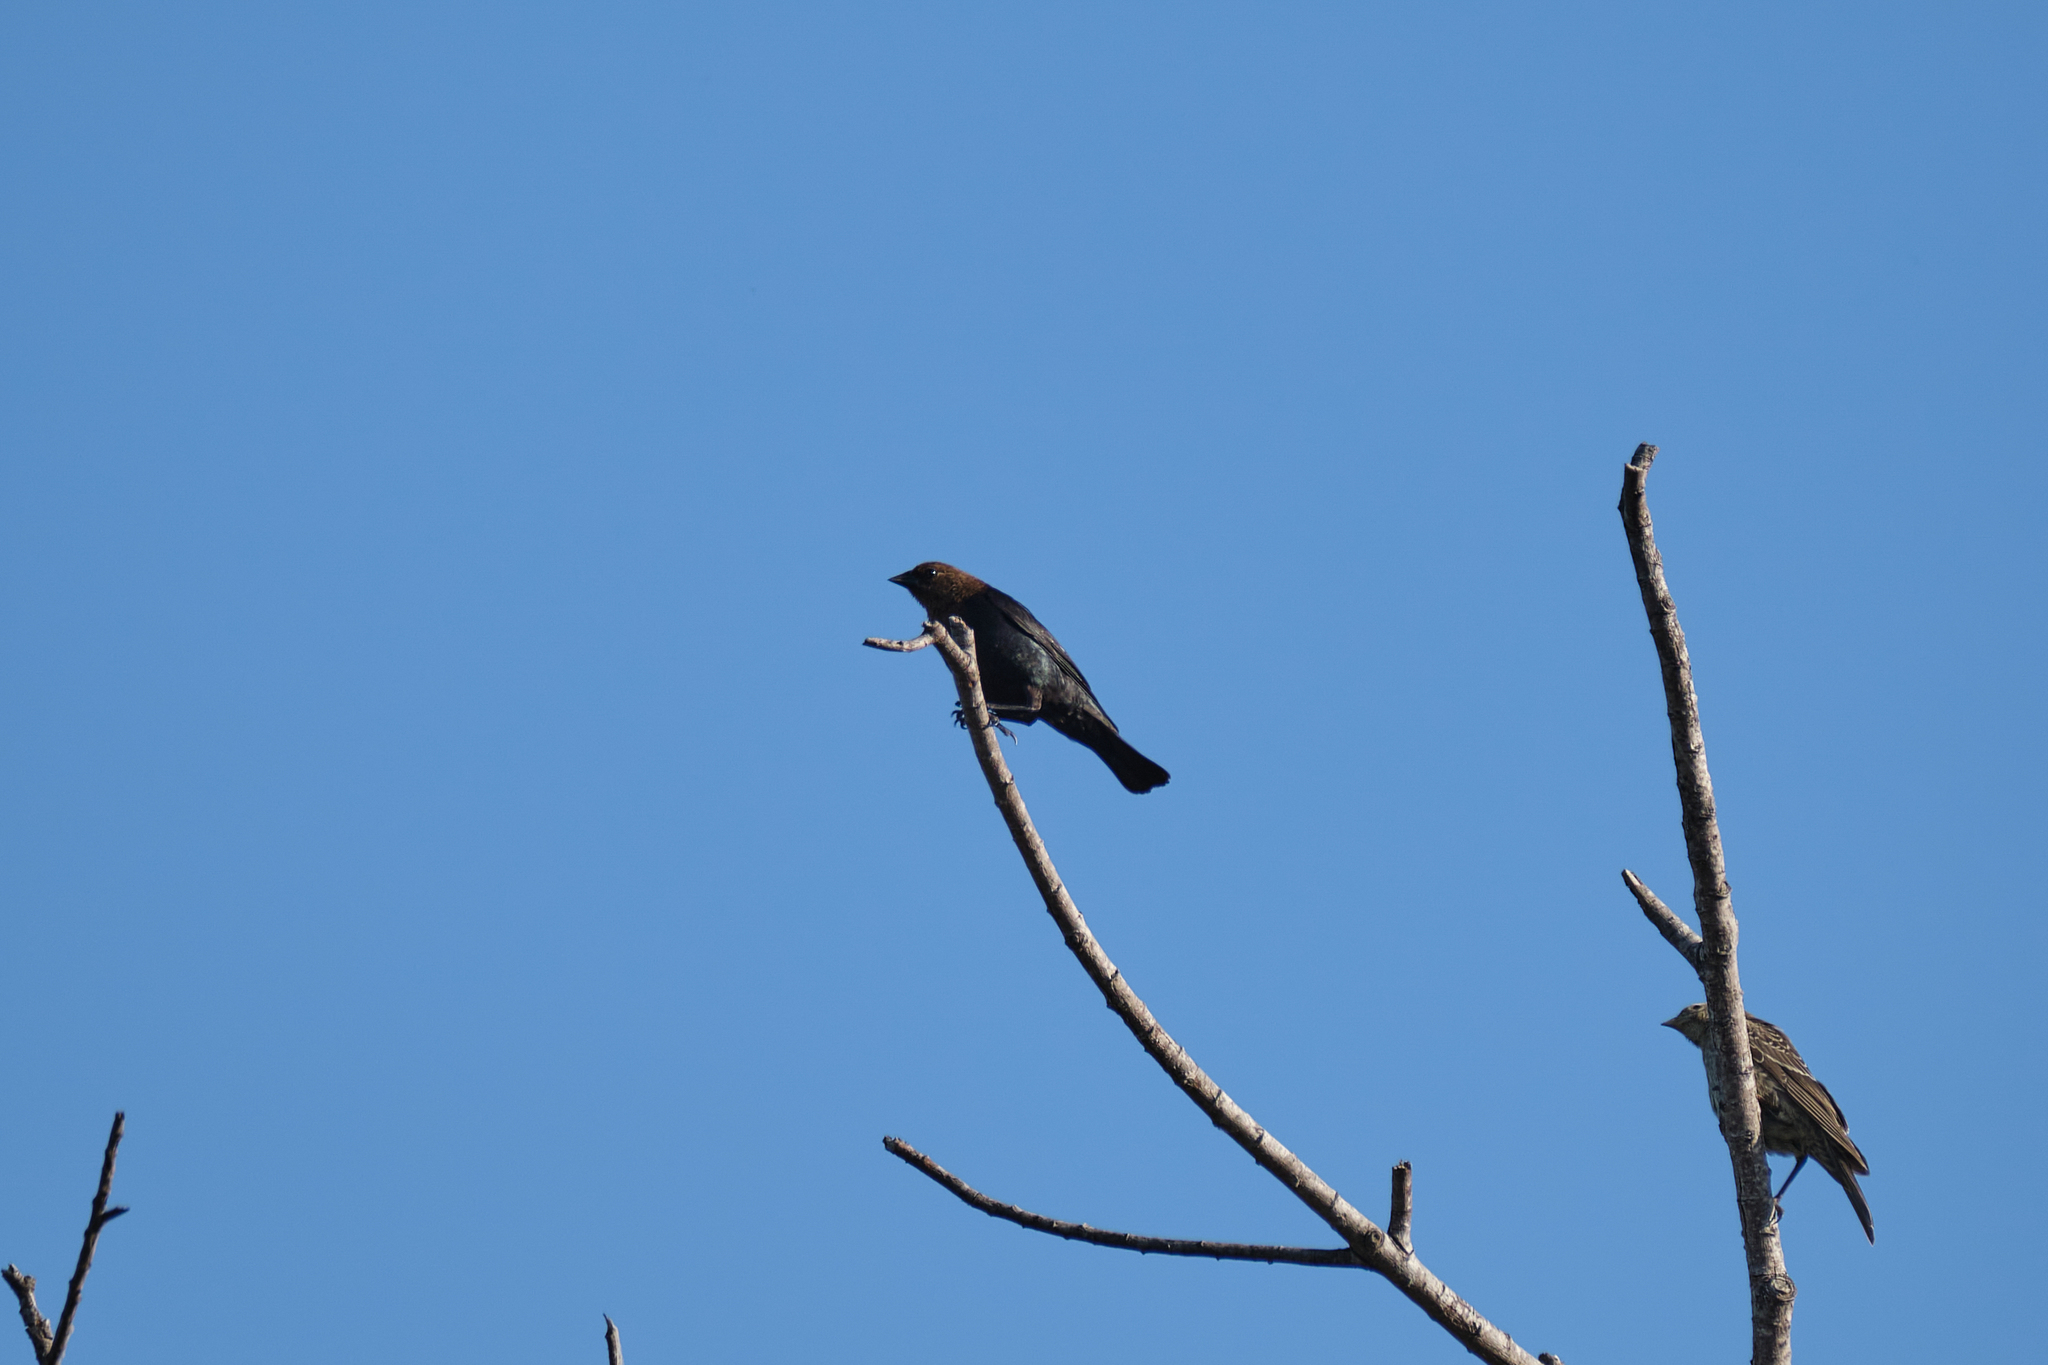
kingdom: Animalia
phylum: Chordata
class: Aves
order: Passeriformes
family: Icteridae
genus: Molothrus
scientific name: Molothrus ater
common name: Brown-headed cowbird
